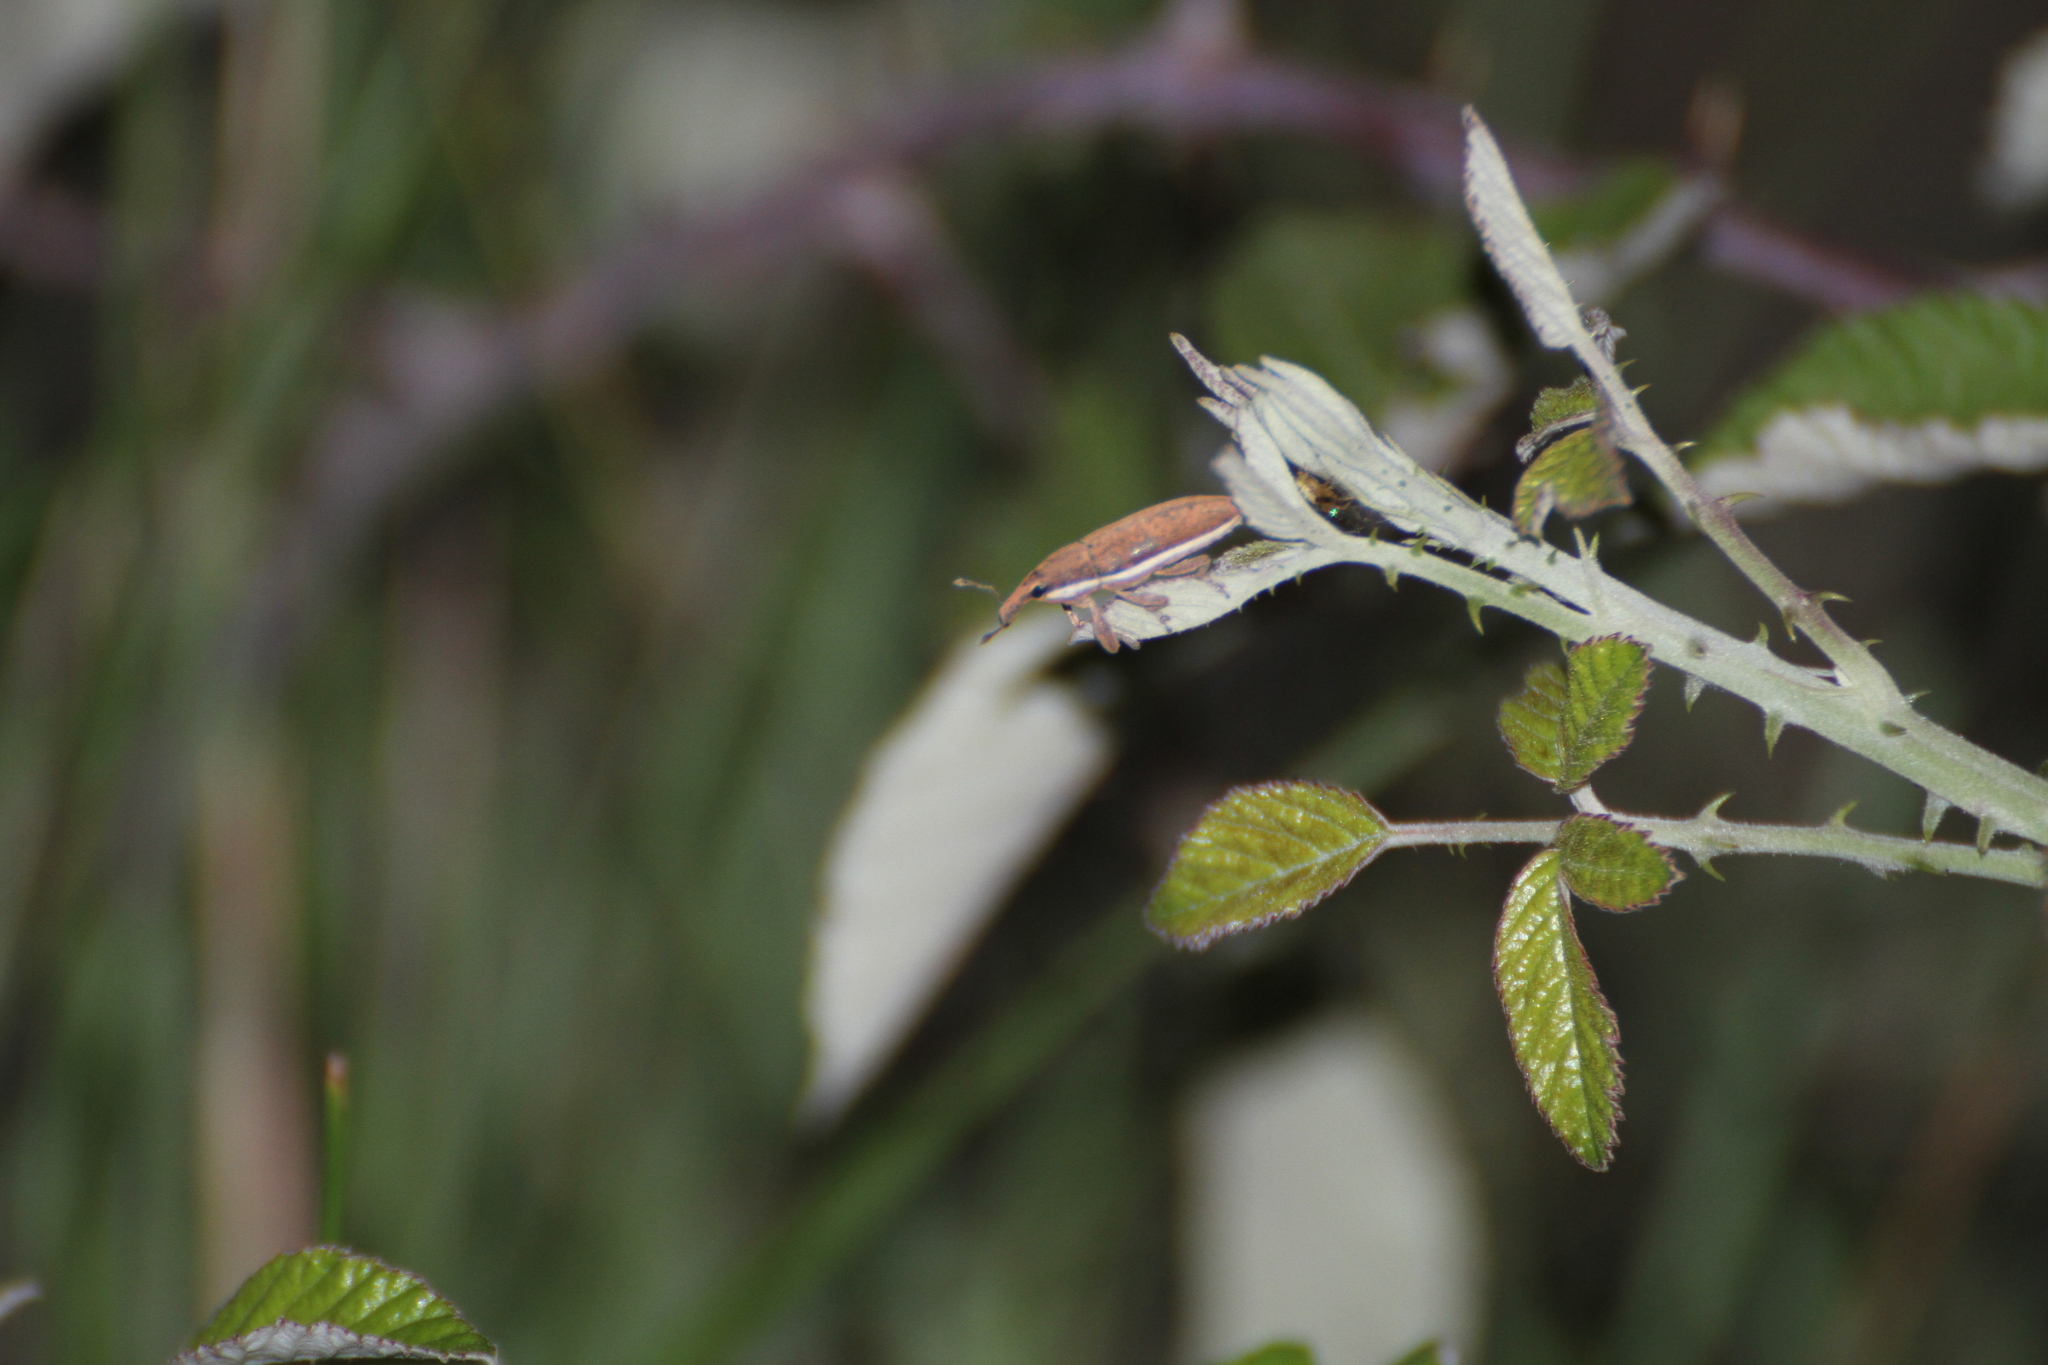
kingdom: Animalia
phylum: Arthropoda
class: Insecta
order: Coleoptera
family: Curculionidae
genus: Lixus
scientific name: Lixus ochraceus
